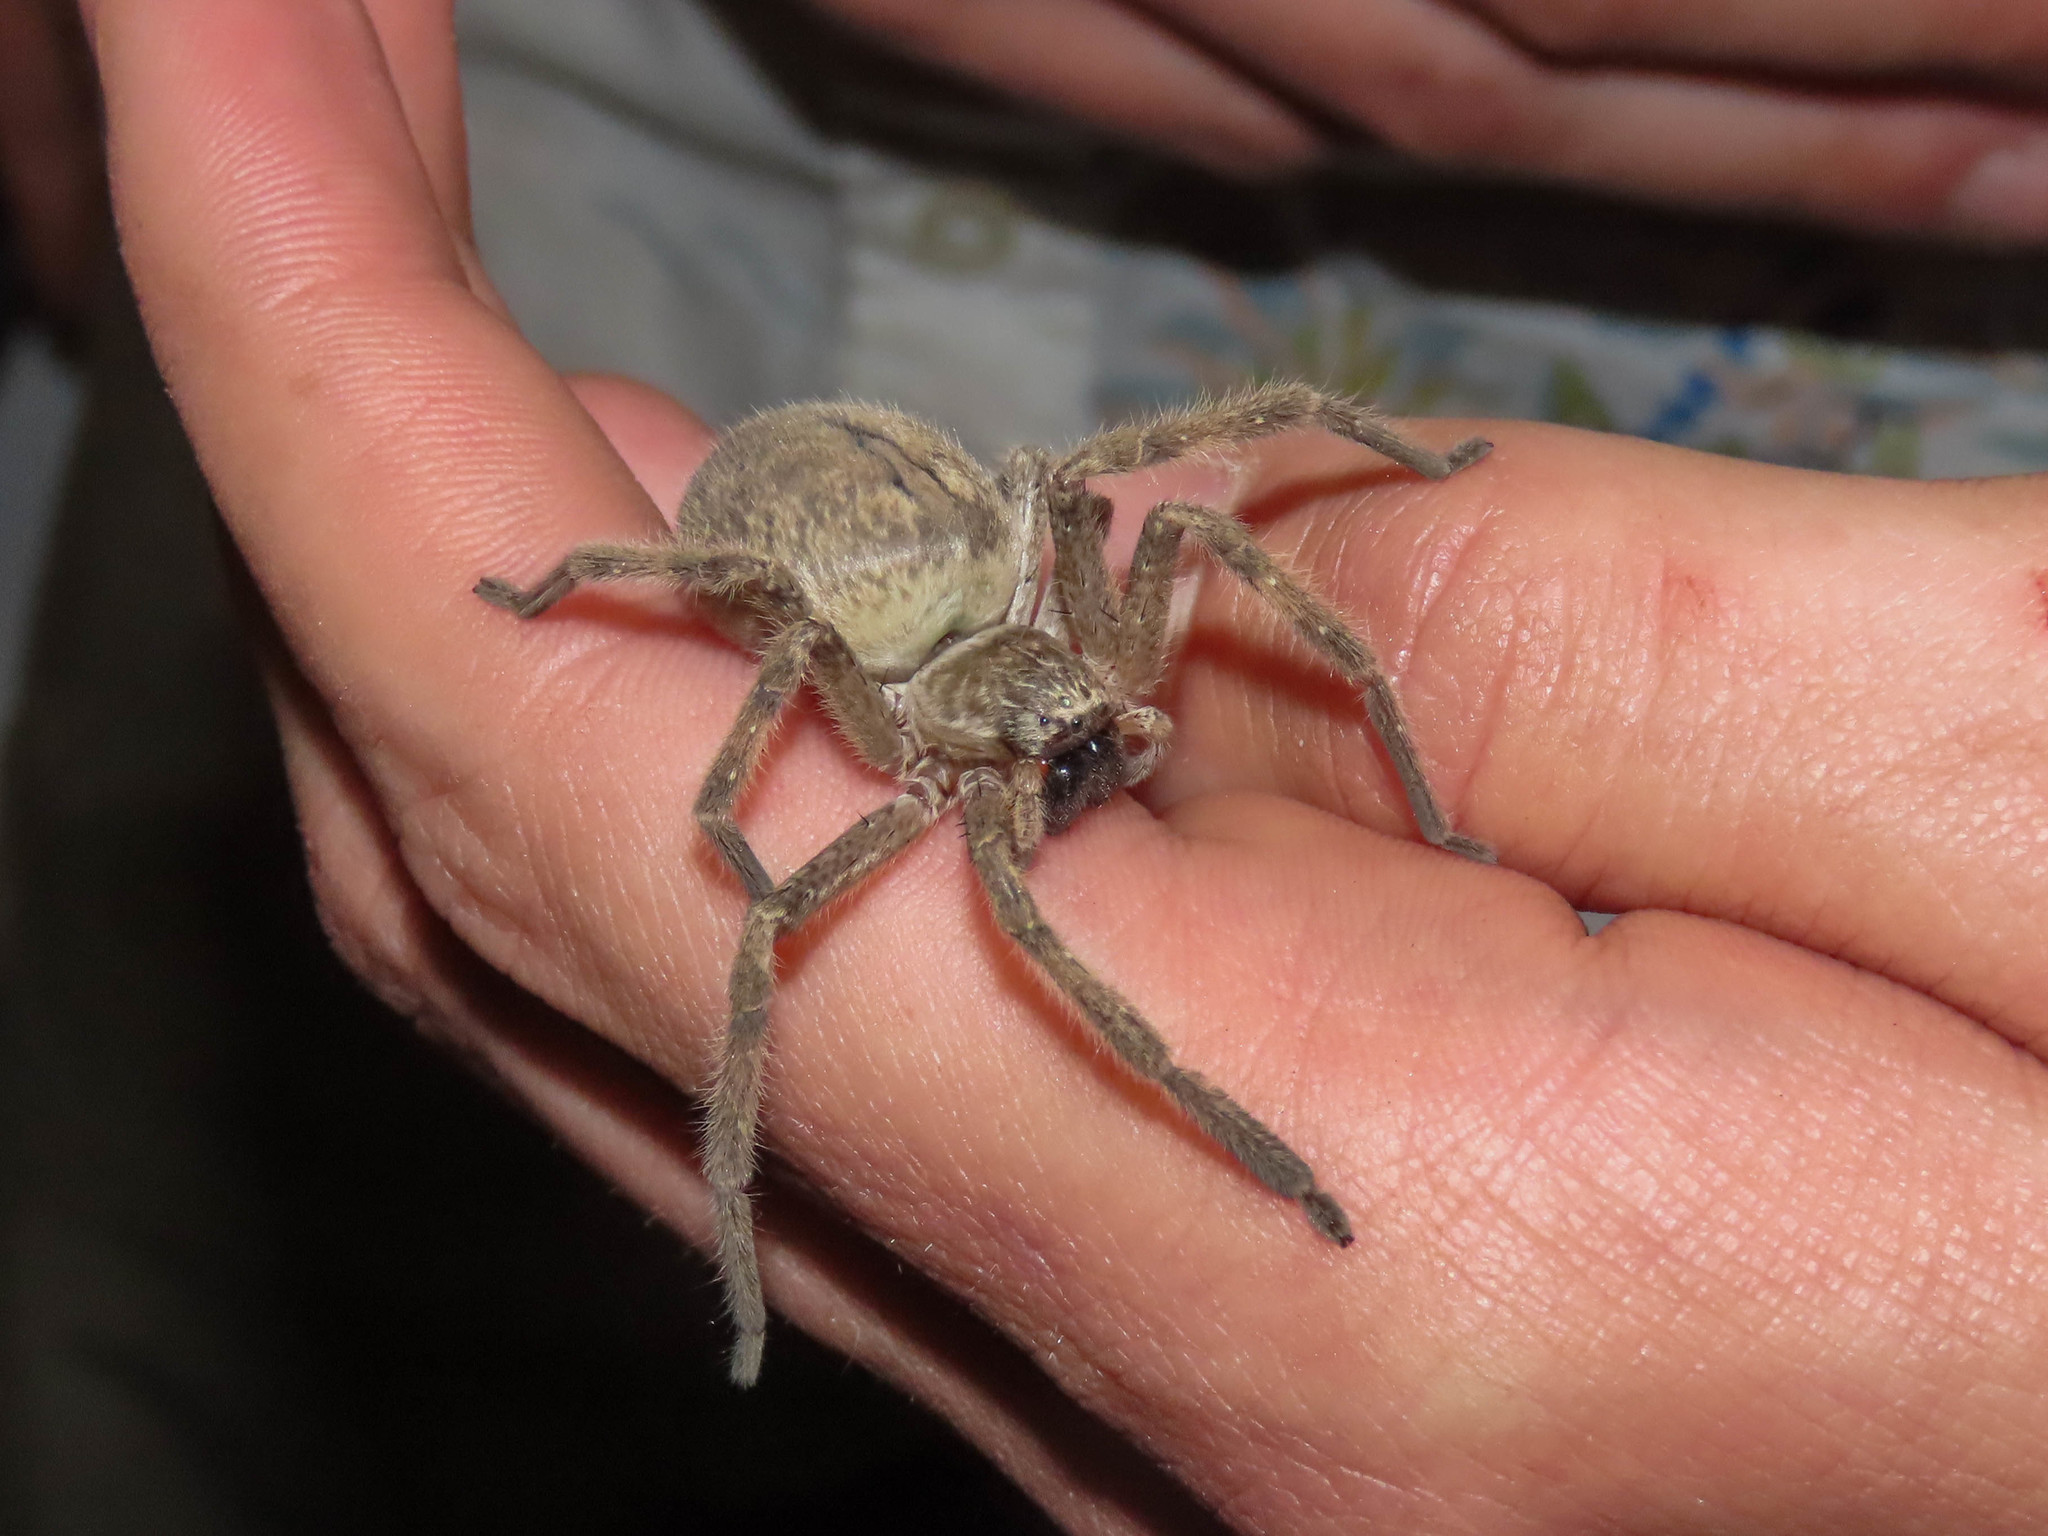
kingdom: Animalia
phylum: Arthropoda
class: Arachnida
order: Araneae
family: Sparassidae
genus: Olios
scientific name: Olios giganteus
